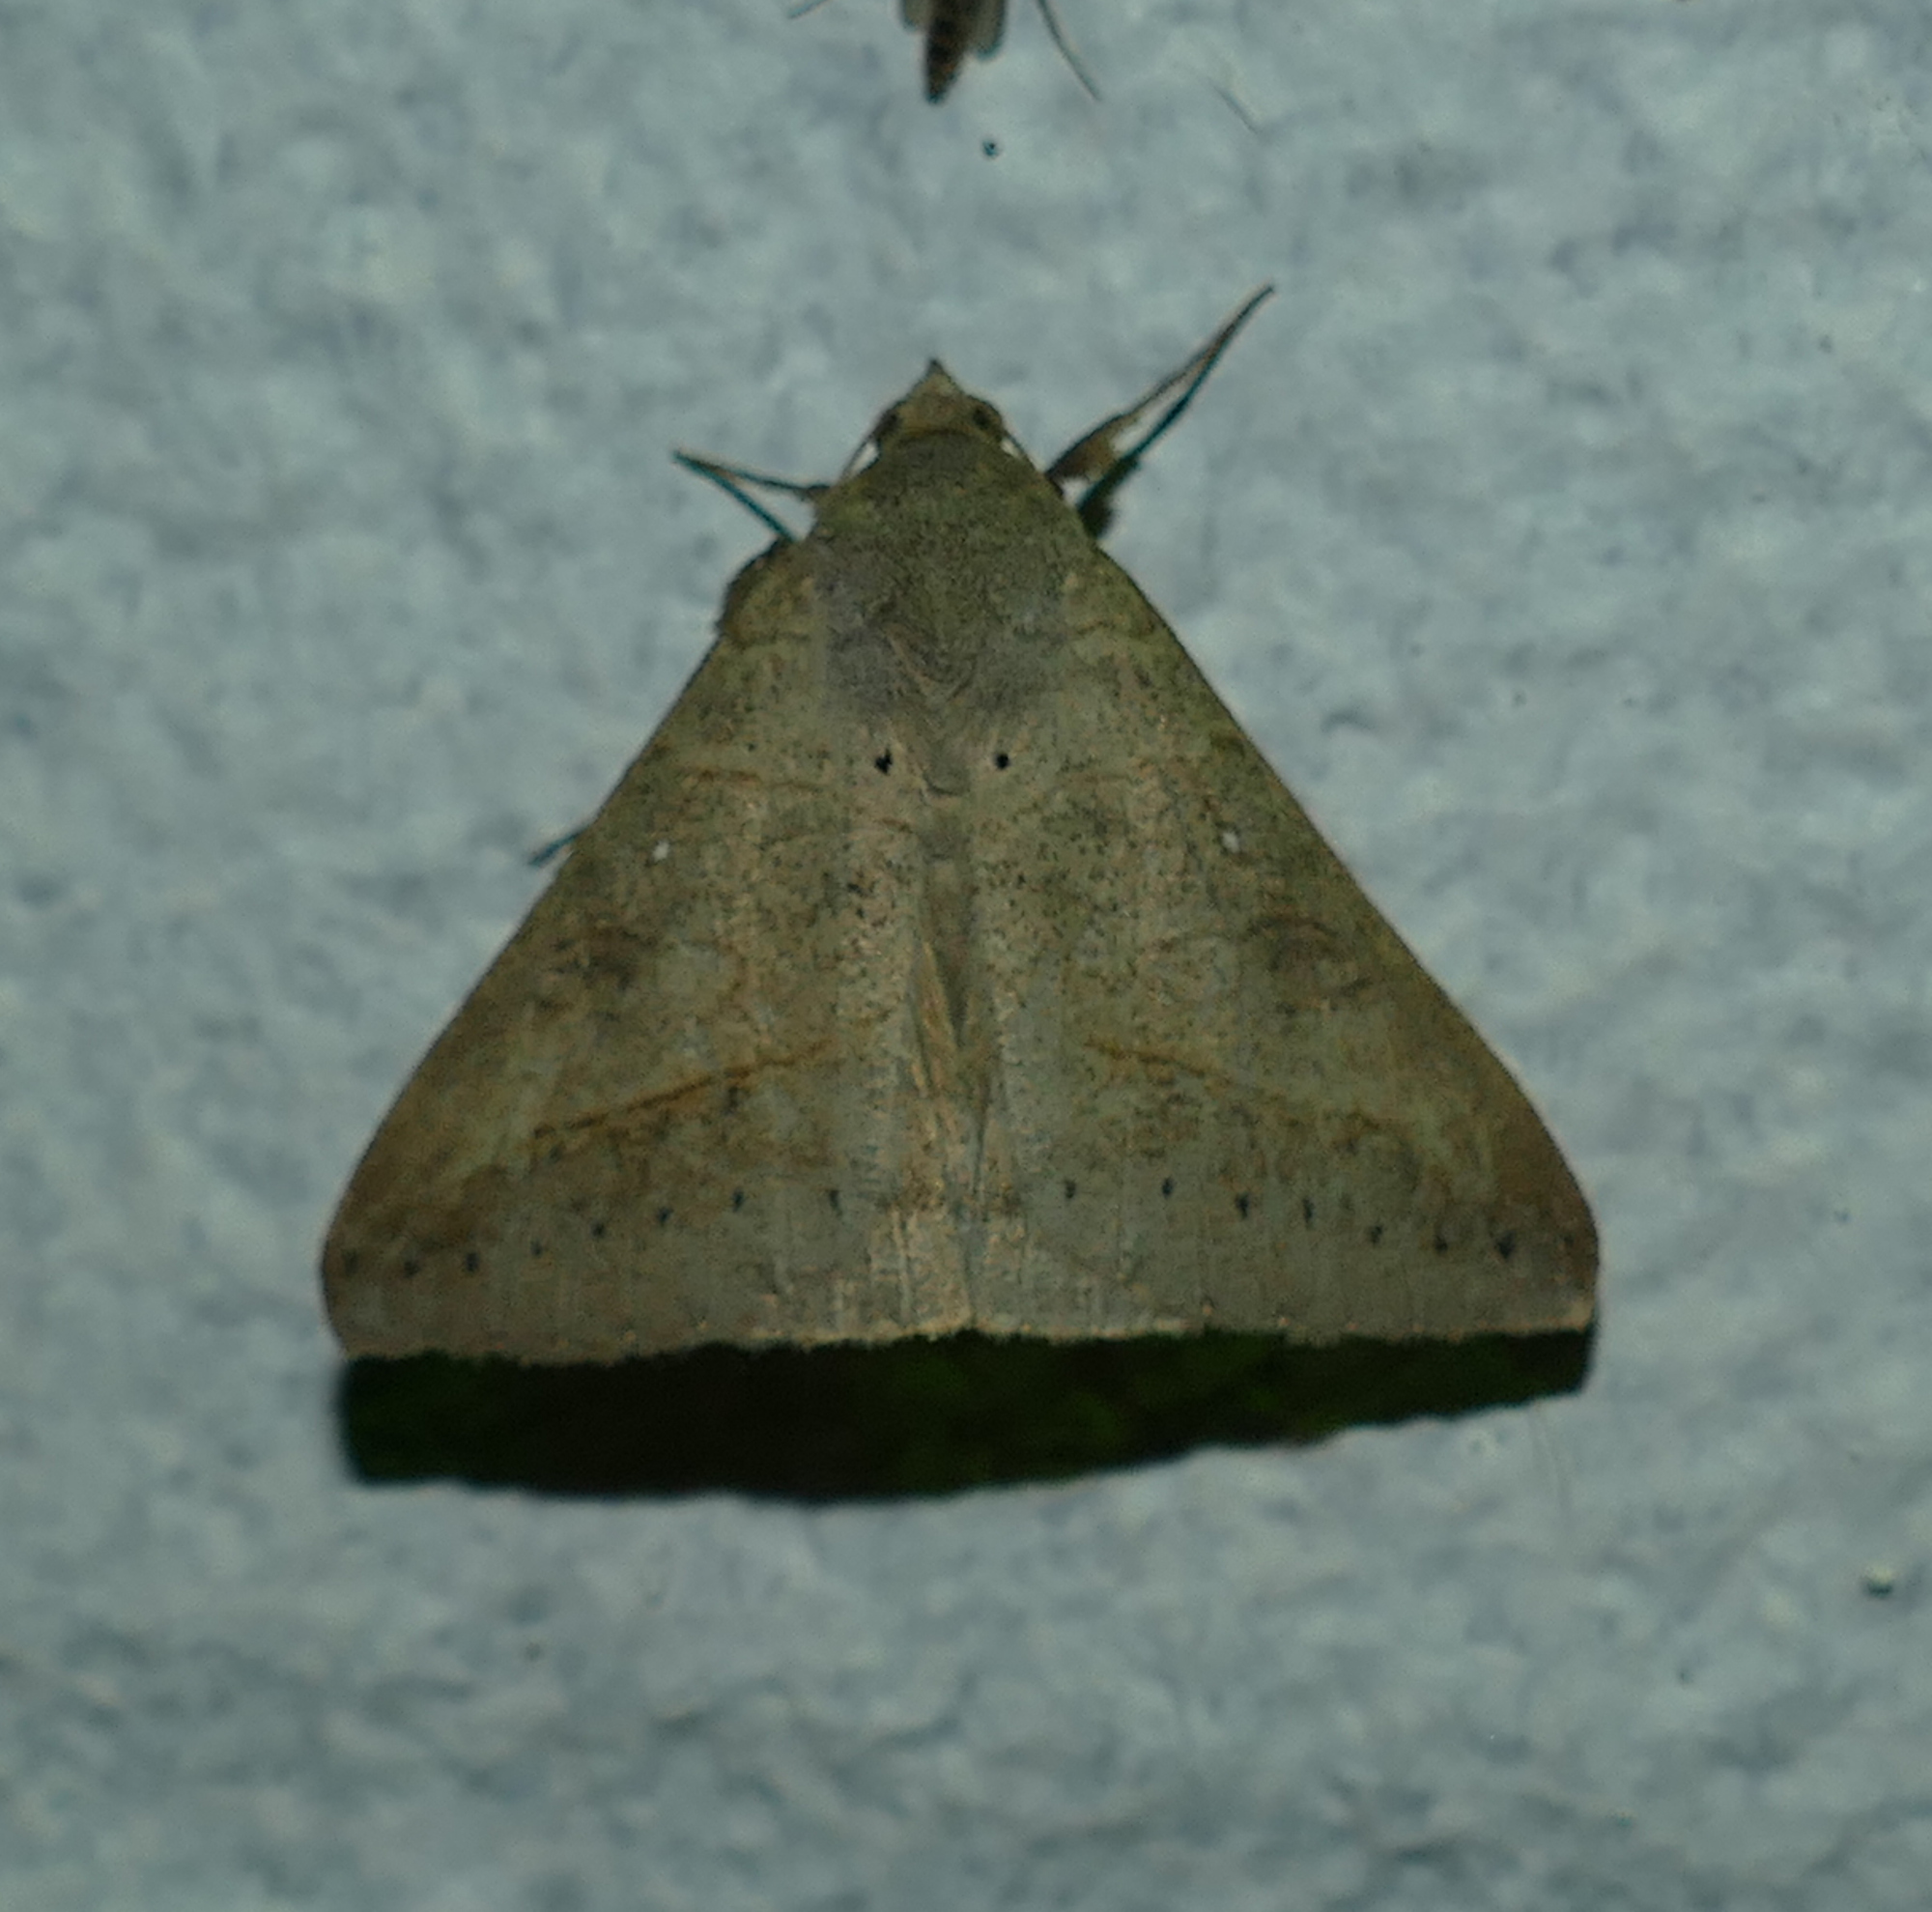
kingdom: Animalia
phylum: Arthropoda
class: Insecta
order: Lepidoptera
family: Erebidae
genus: Mocis
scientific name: Mocis disseverans
